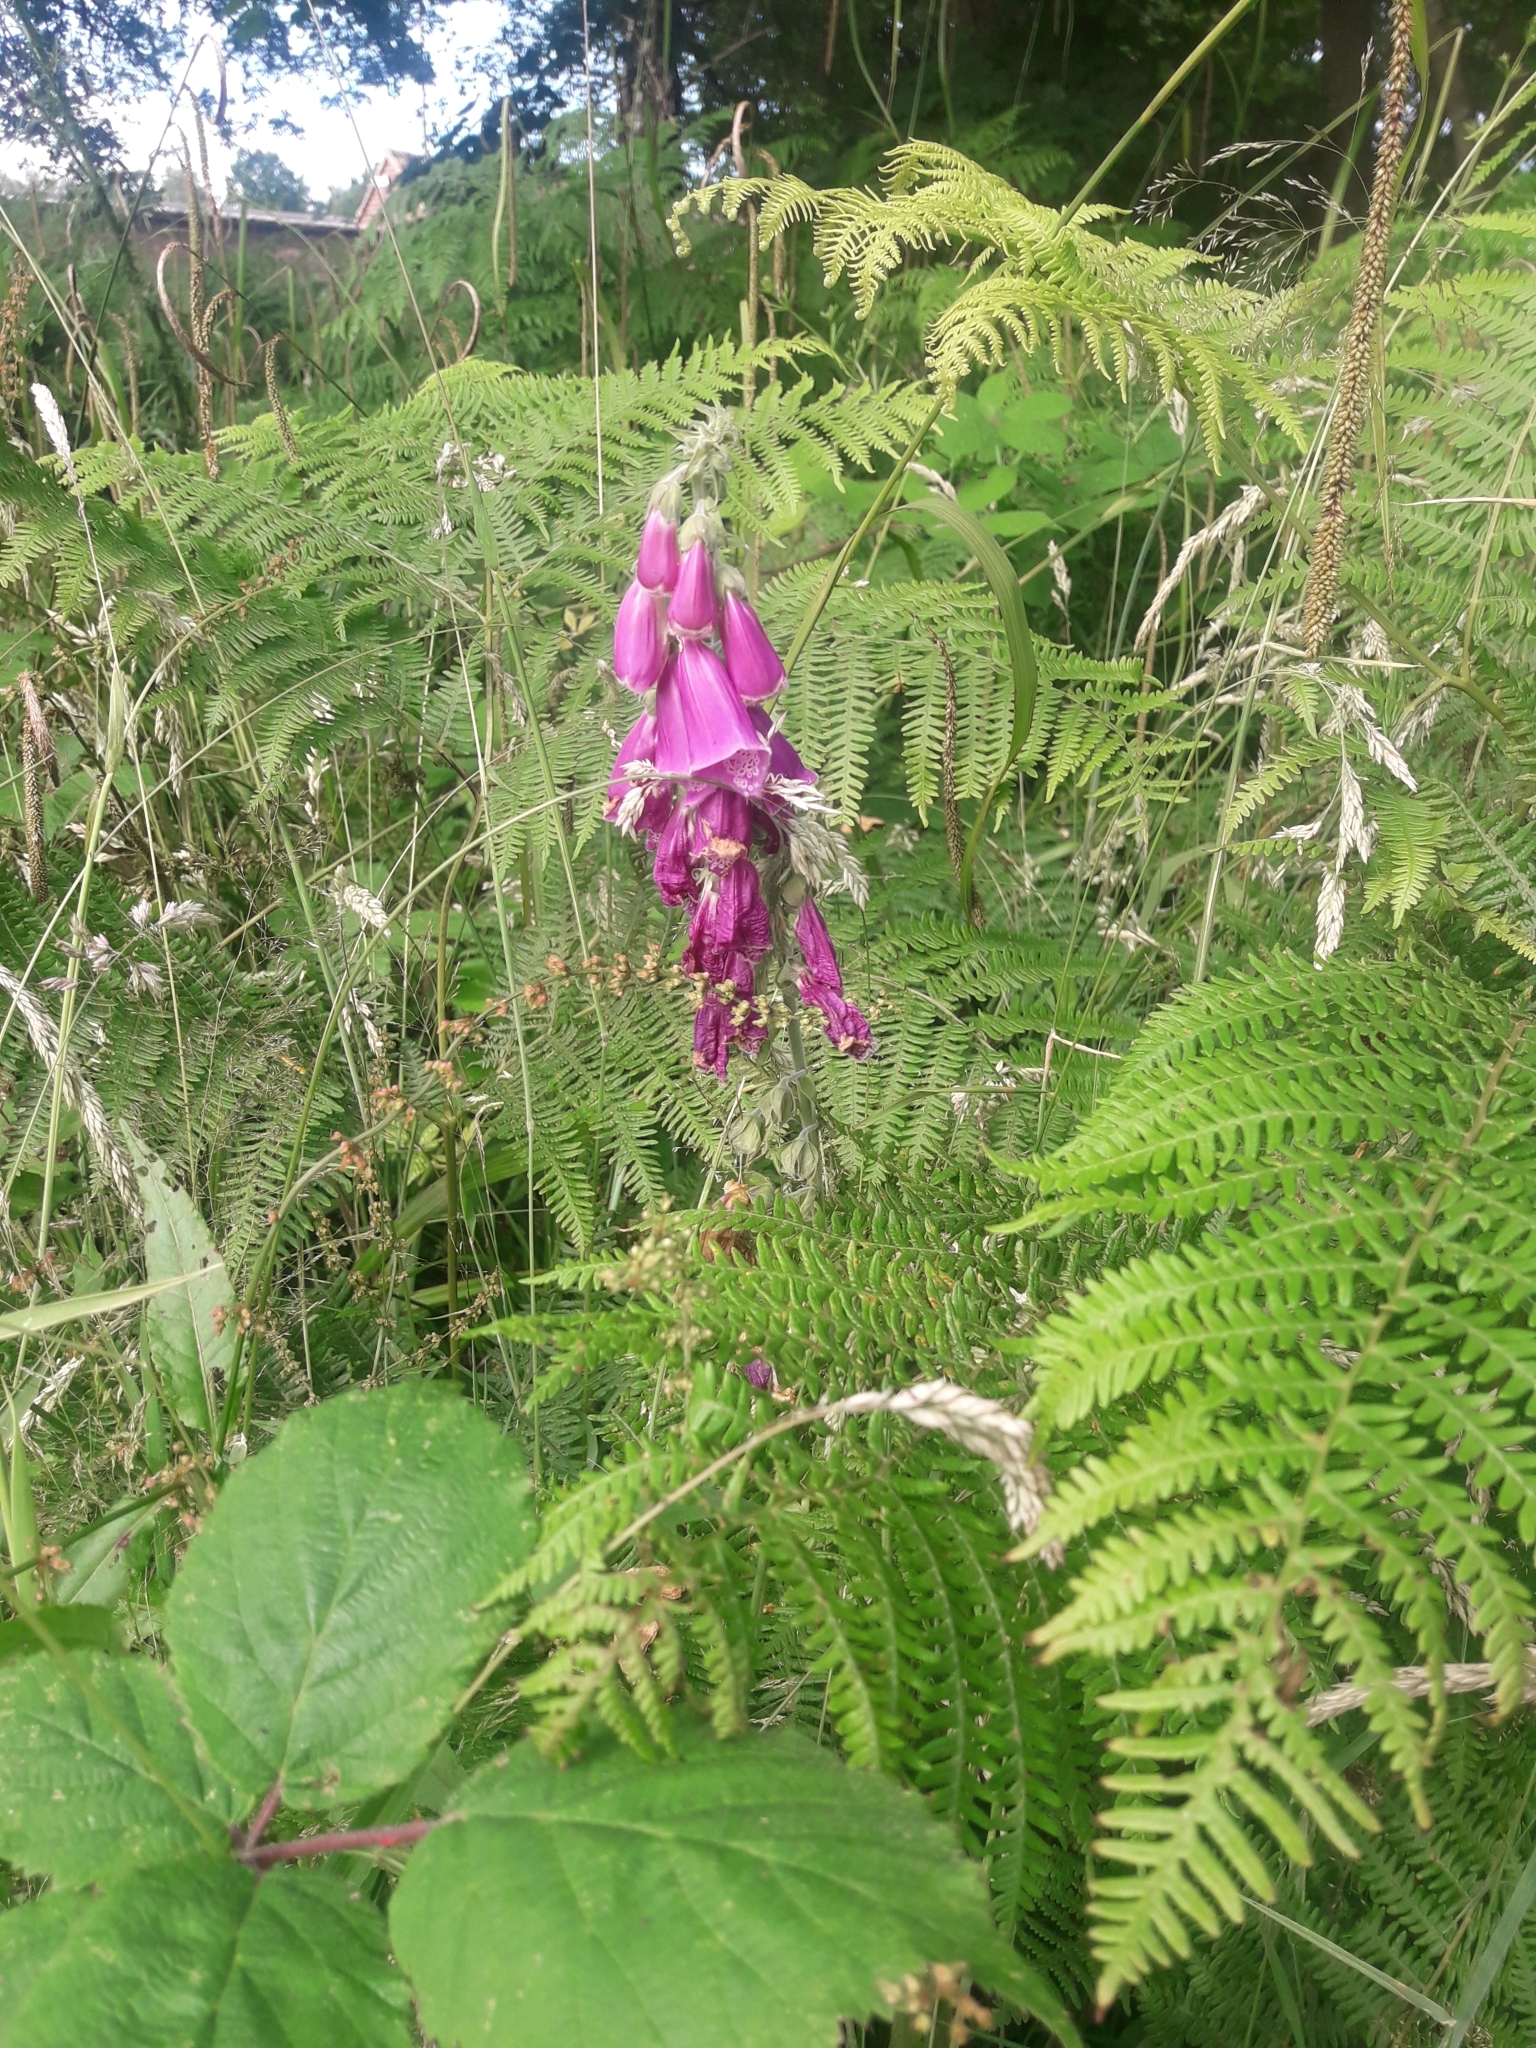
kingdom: Plantae
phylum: Tracheophyta
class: Magnoliopsida
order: Lamiales
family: Plantaginaceae
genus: Digitalis
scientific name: Digitalis purpurea
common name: Foxglove
